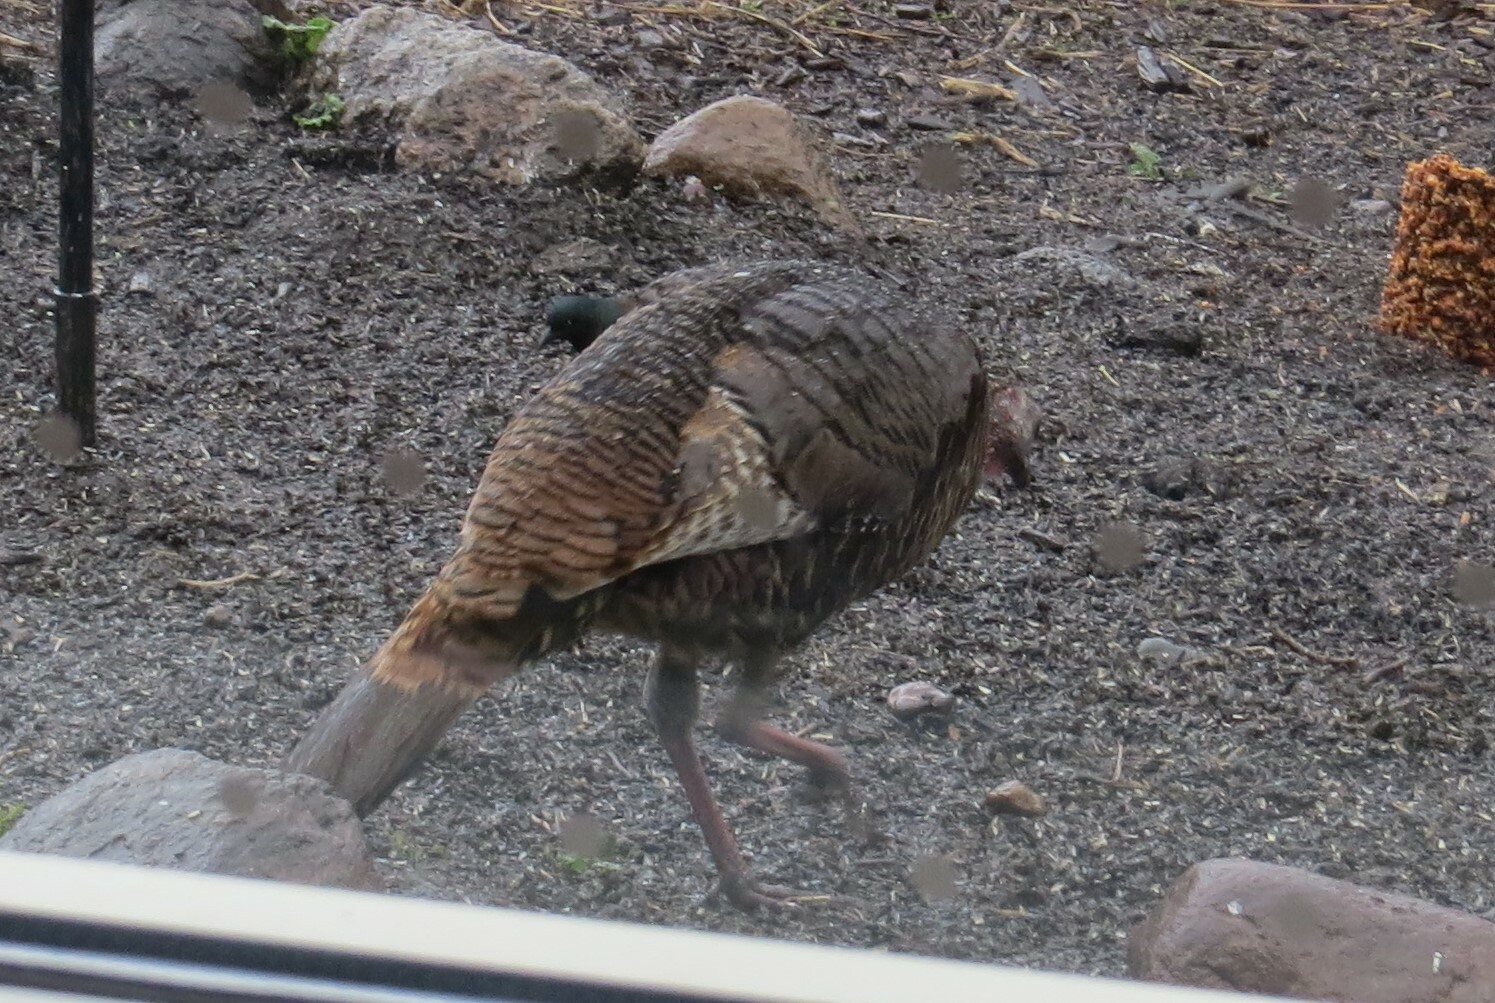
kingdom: Animalia
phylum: Chordata
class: Aves
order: Galliformes
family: Phasianidae
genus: Meleagris
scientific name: Meleagris gallopavo
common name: Wild turkey
